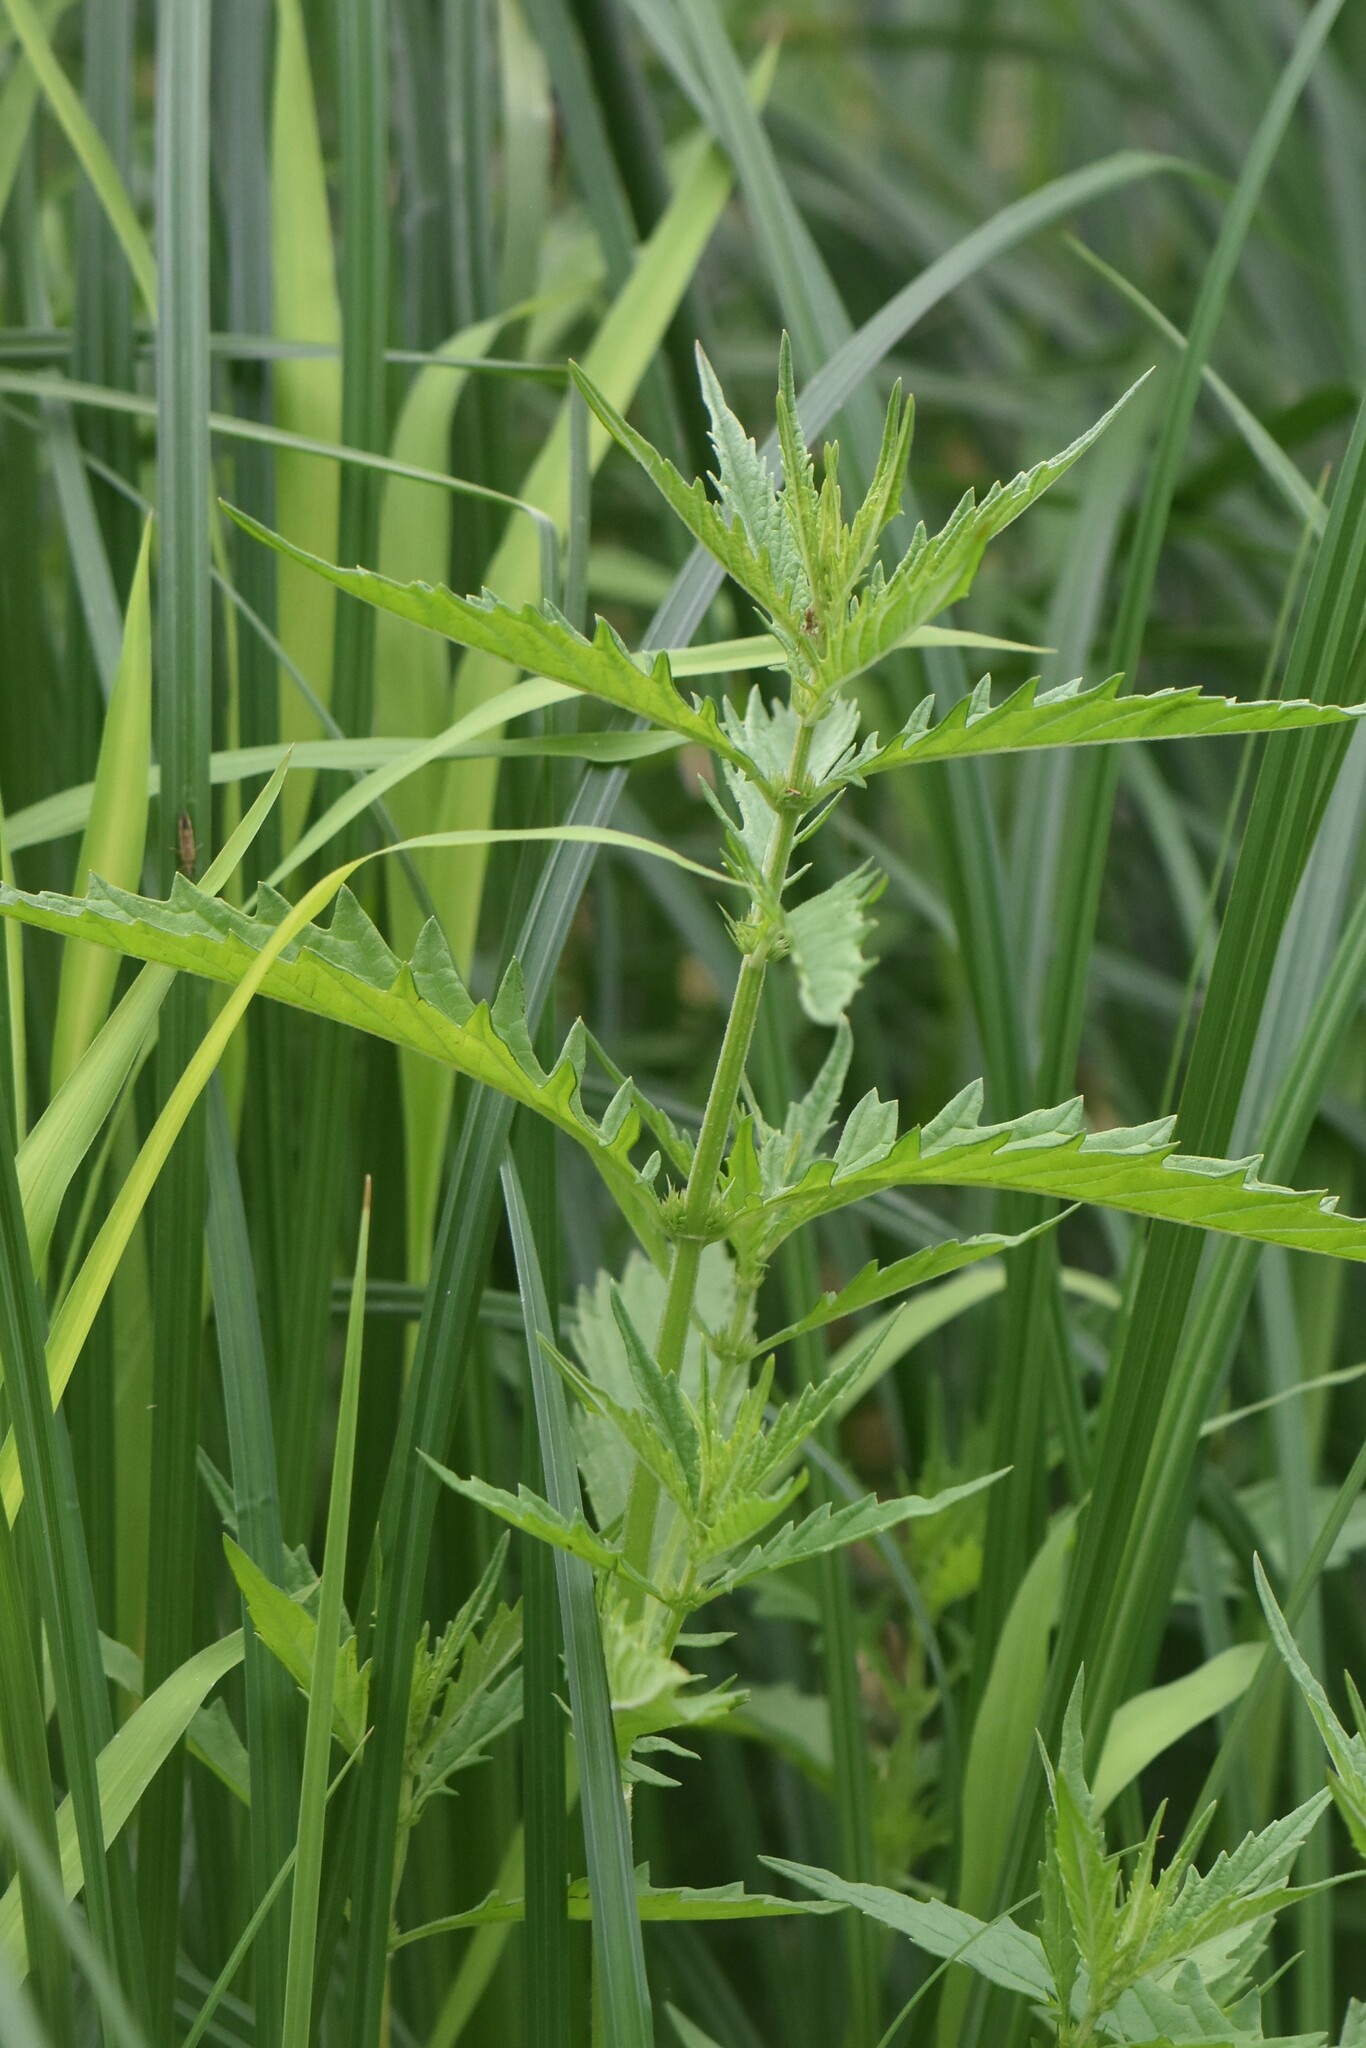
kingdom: Plantae
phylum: Tracheophyta
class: Magnoliopsida
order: Lamiales
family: Lamiaceae
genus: Lycopus
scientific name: Lycopus europaeus
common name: European bugleweed
